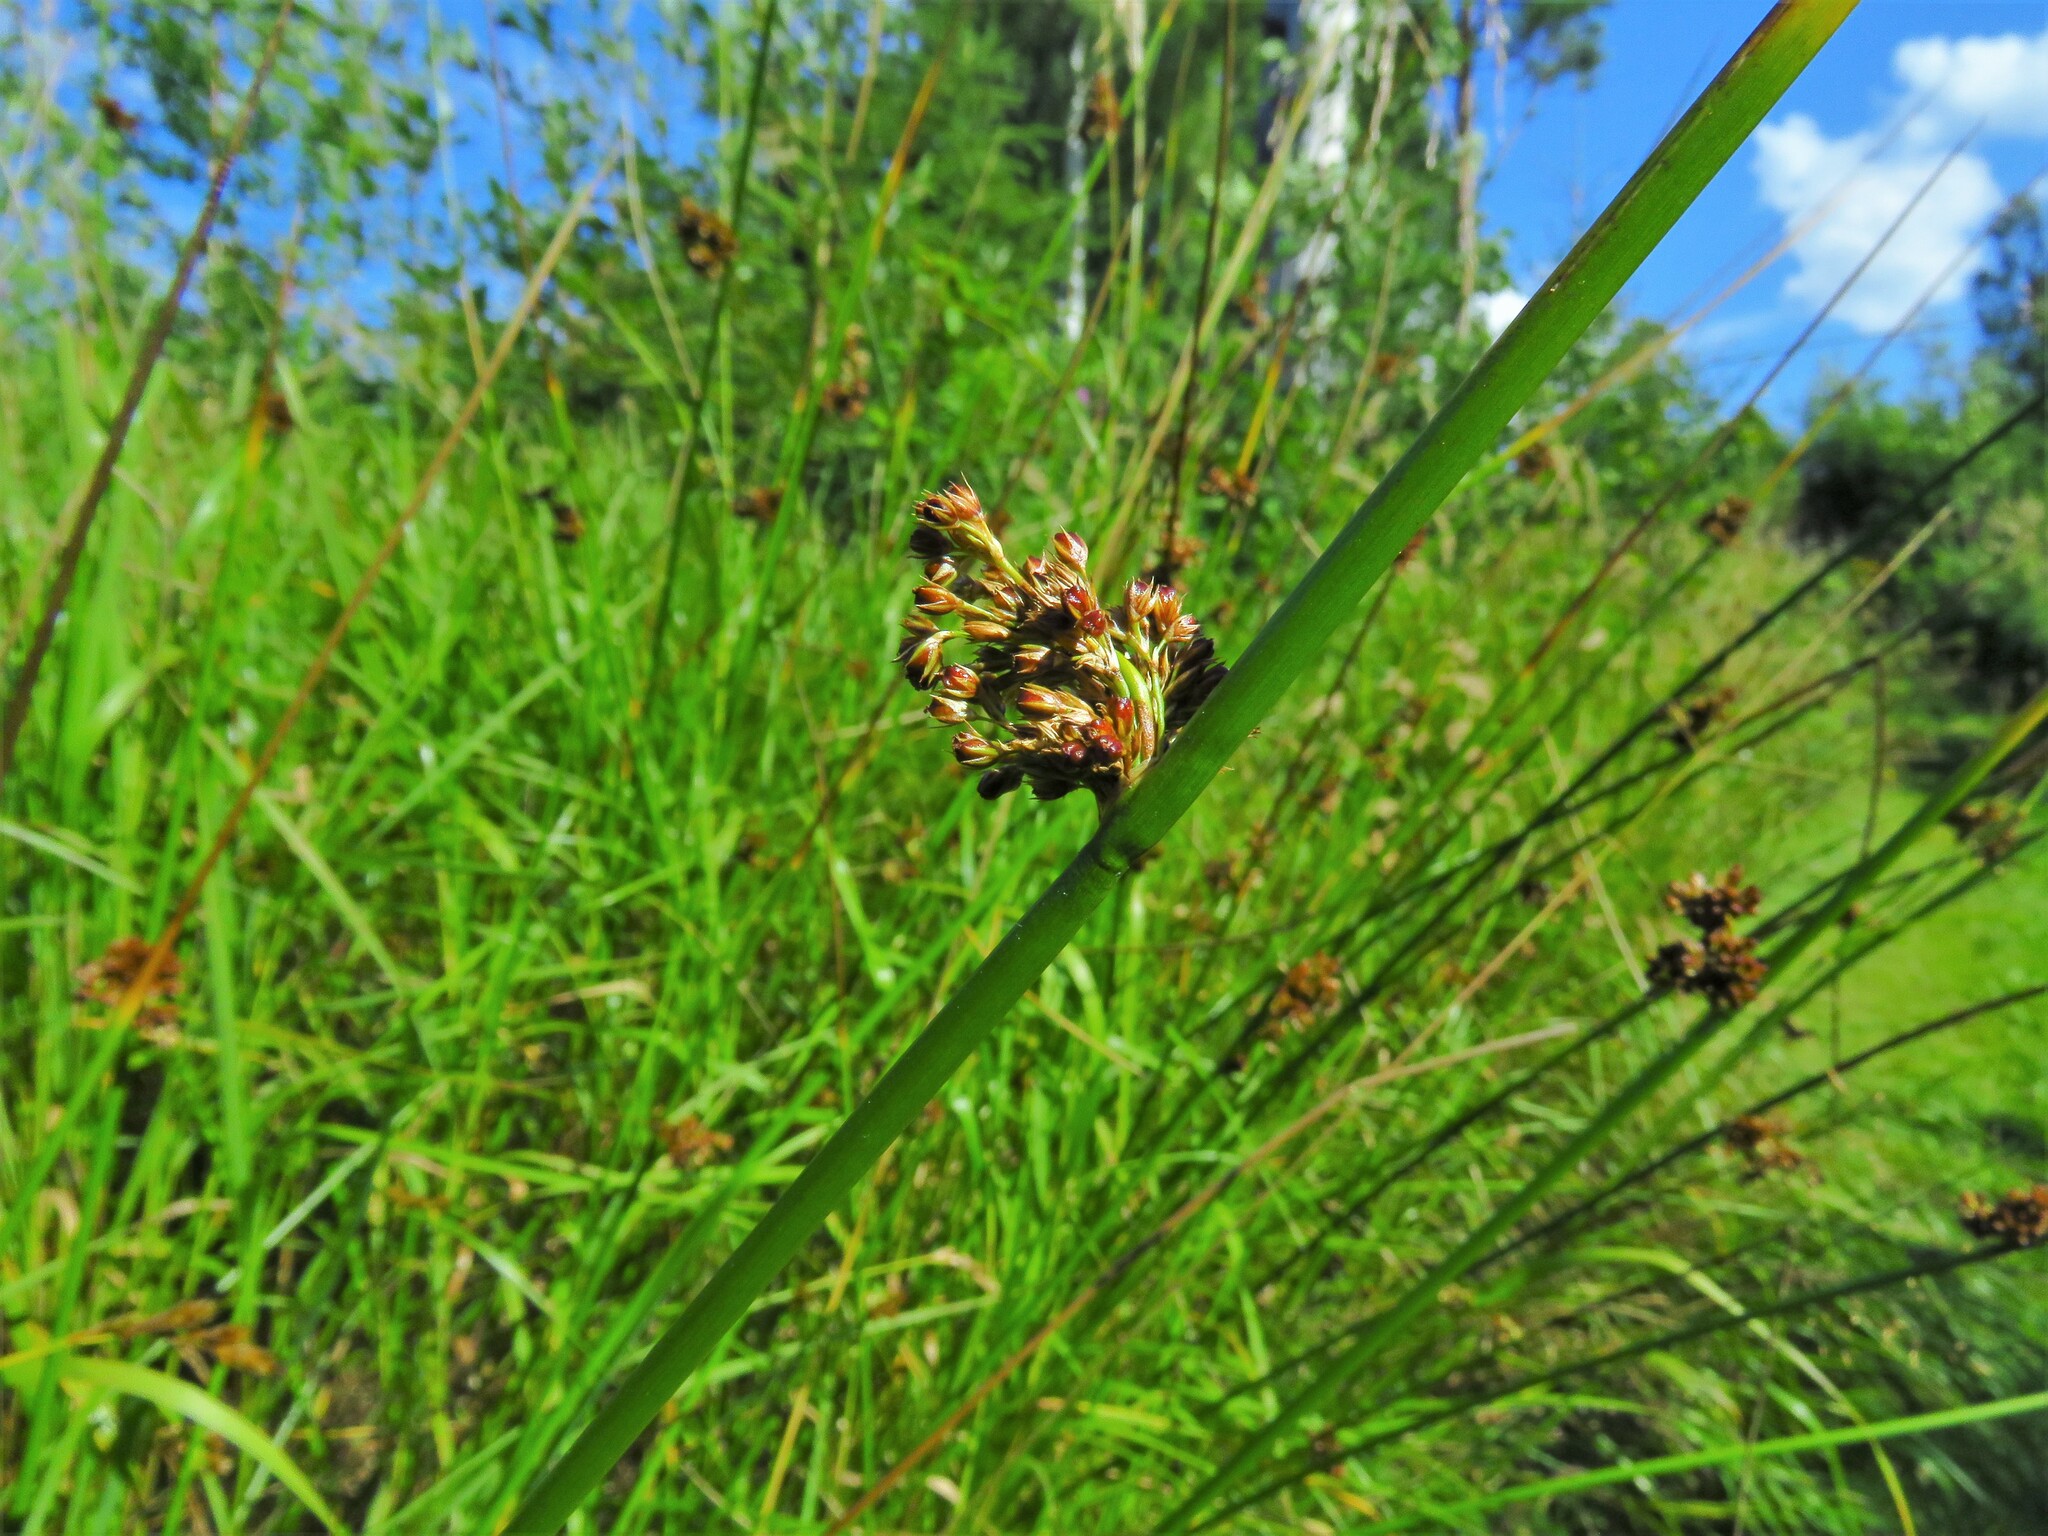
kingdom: Plantae
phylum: Tracheophyta
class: Liliopsida
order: Poales
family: Juncaceae
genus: Juncus
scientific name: Juncus effusus
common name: Soft rush
